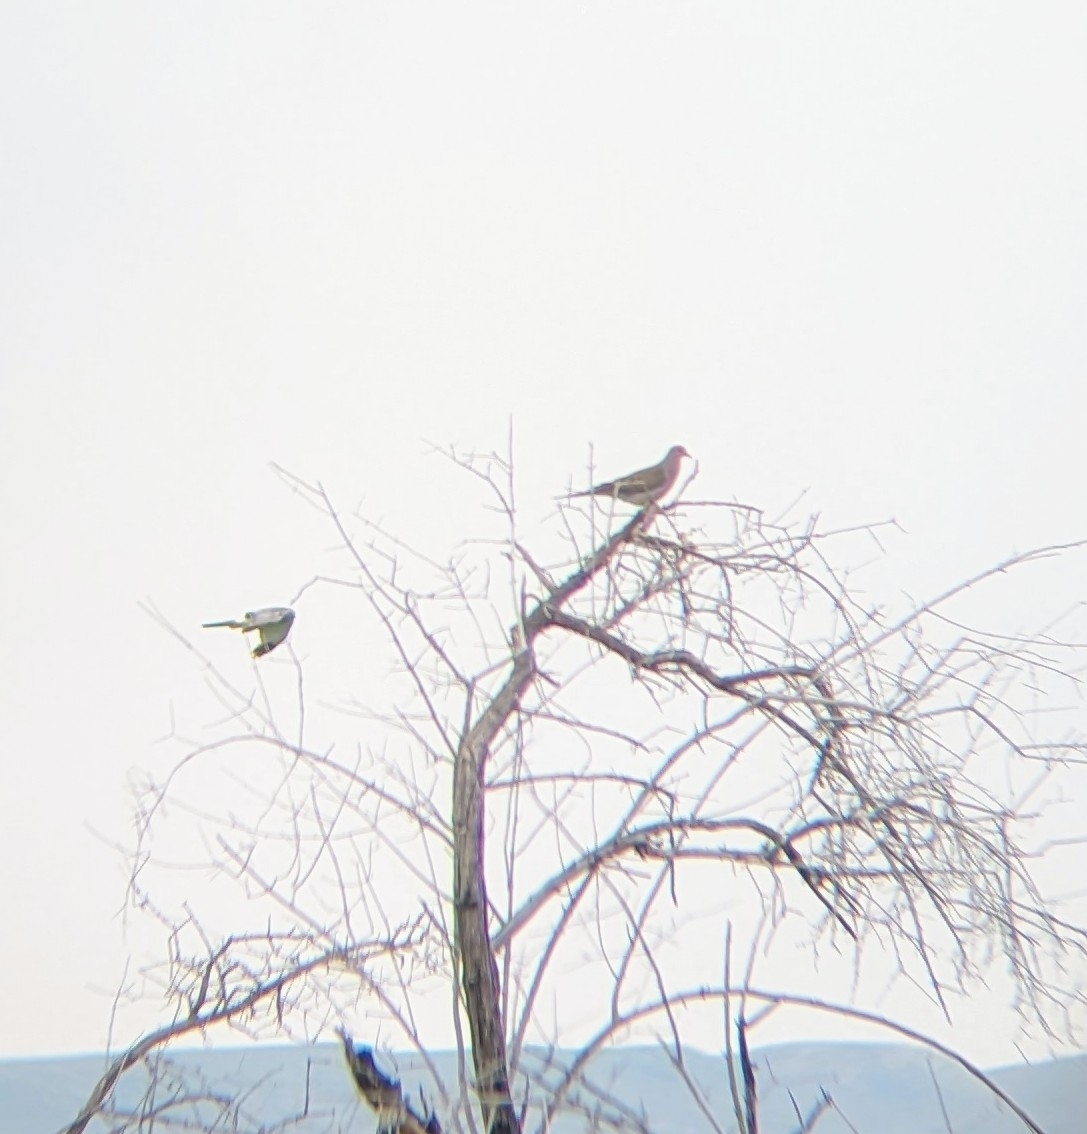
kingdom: Animalia
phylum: Chordata
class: Aves
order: Columbiformes
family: Columbidae
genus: Zenaida
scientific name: Zenaida macroura
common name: Mourning dove
